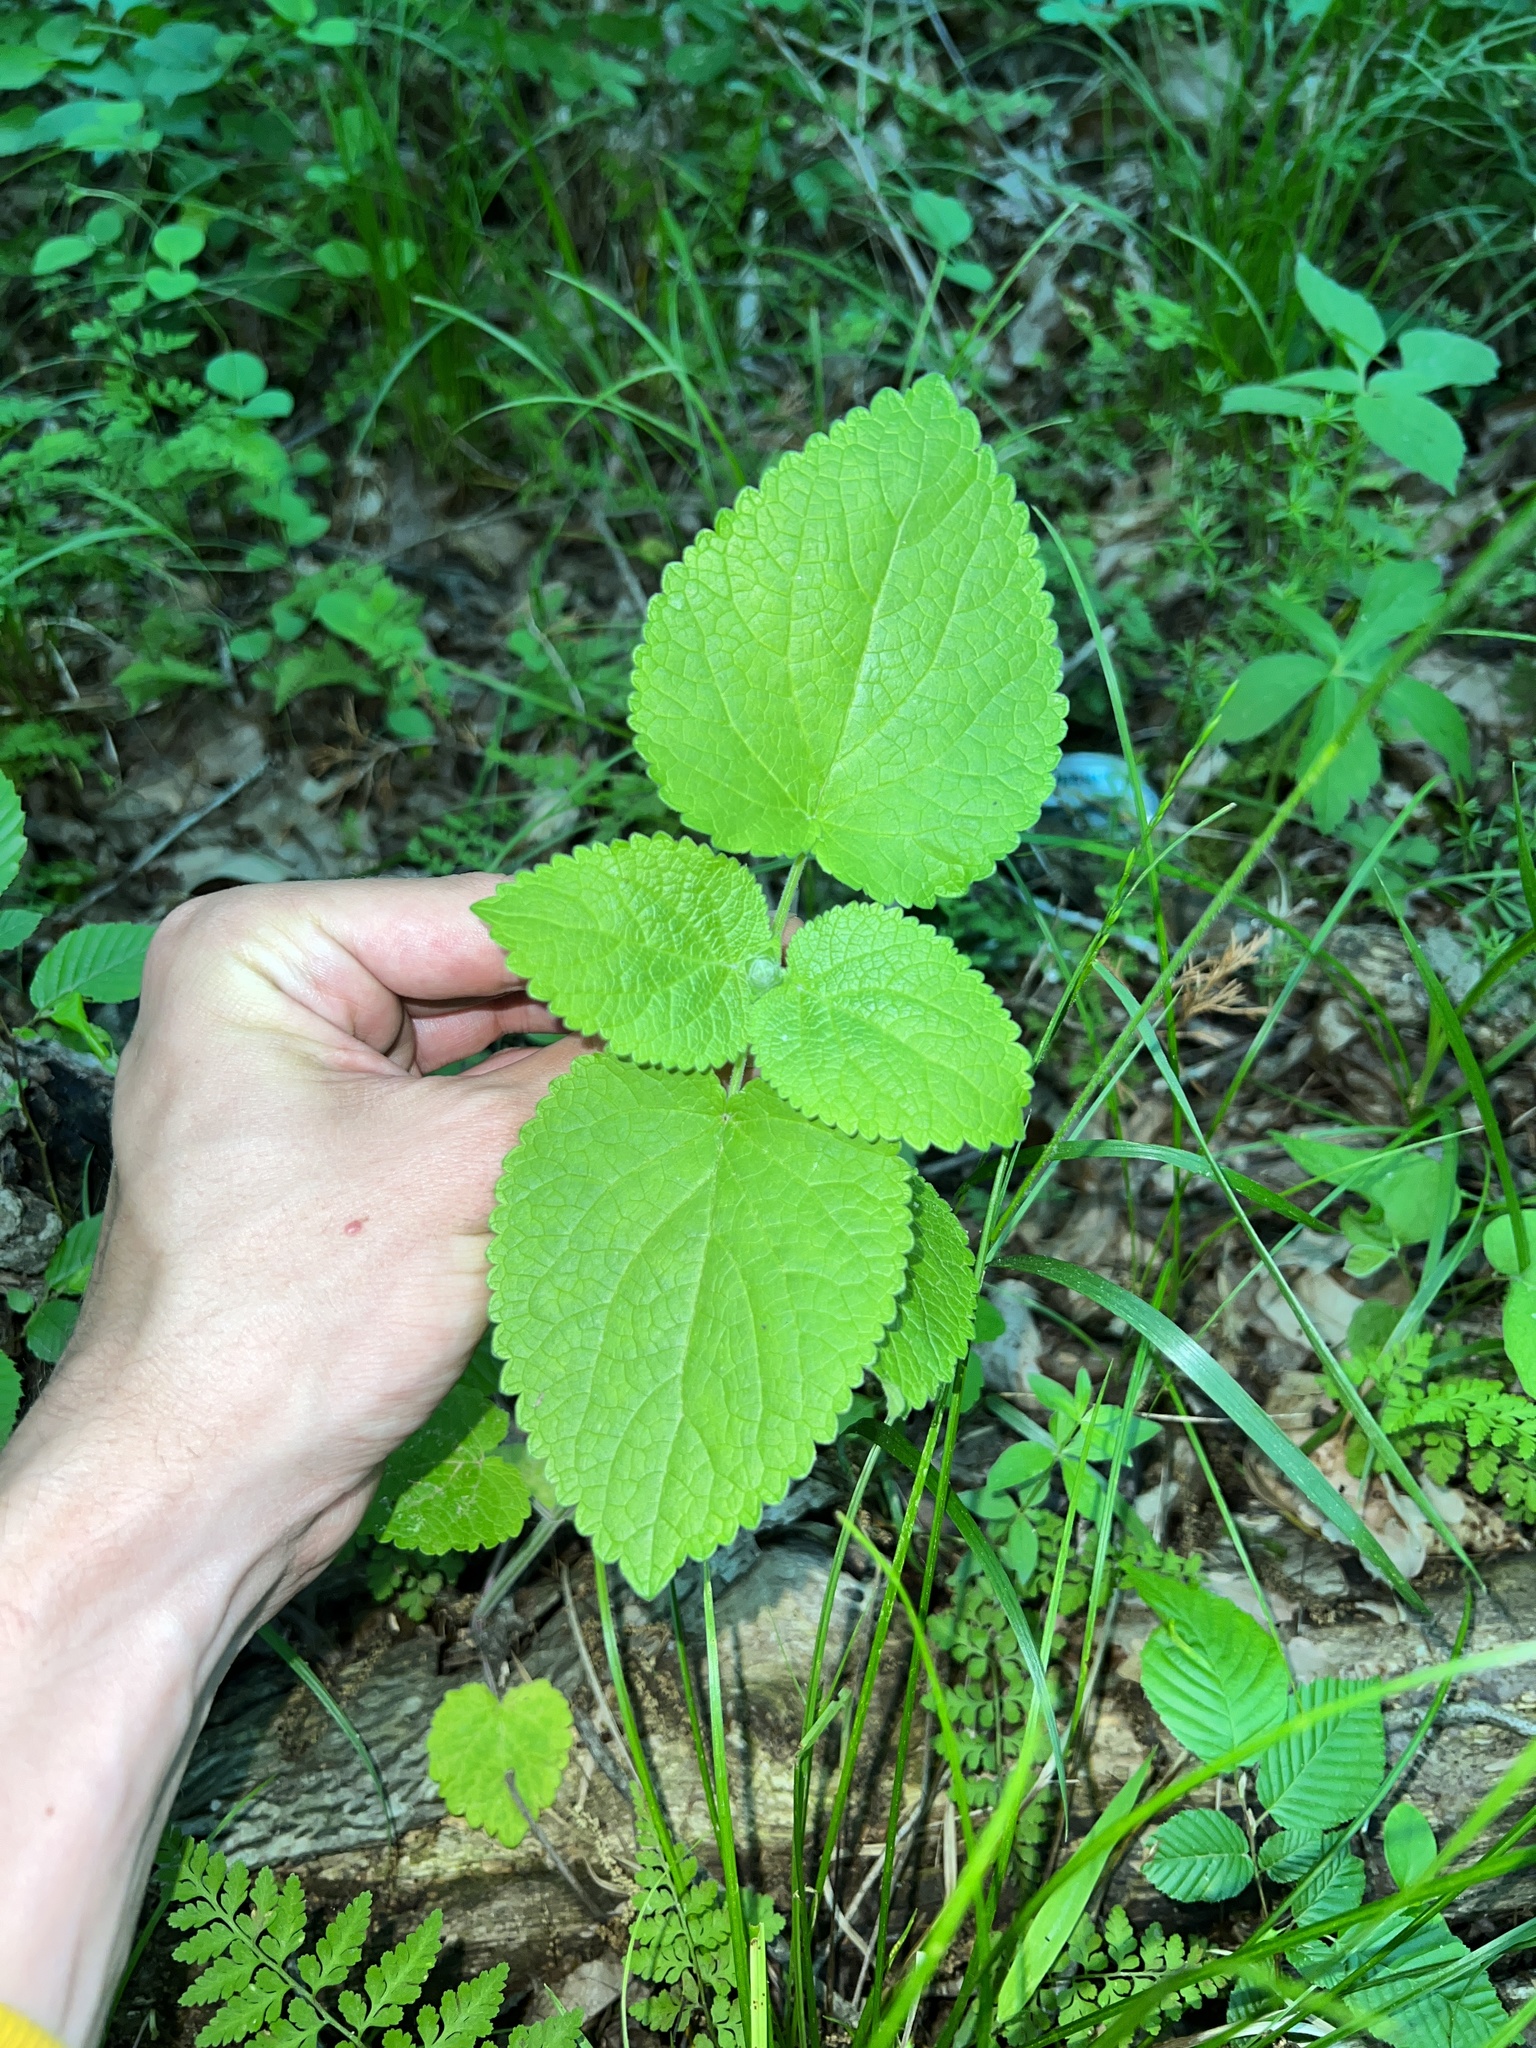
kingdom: Plantae
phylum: Tracheophyta
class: Magnoliopsida
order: Lamiales
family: Lamiaceae
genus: Scutellaria
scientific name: Scutellaria ovata
